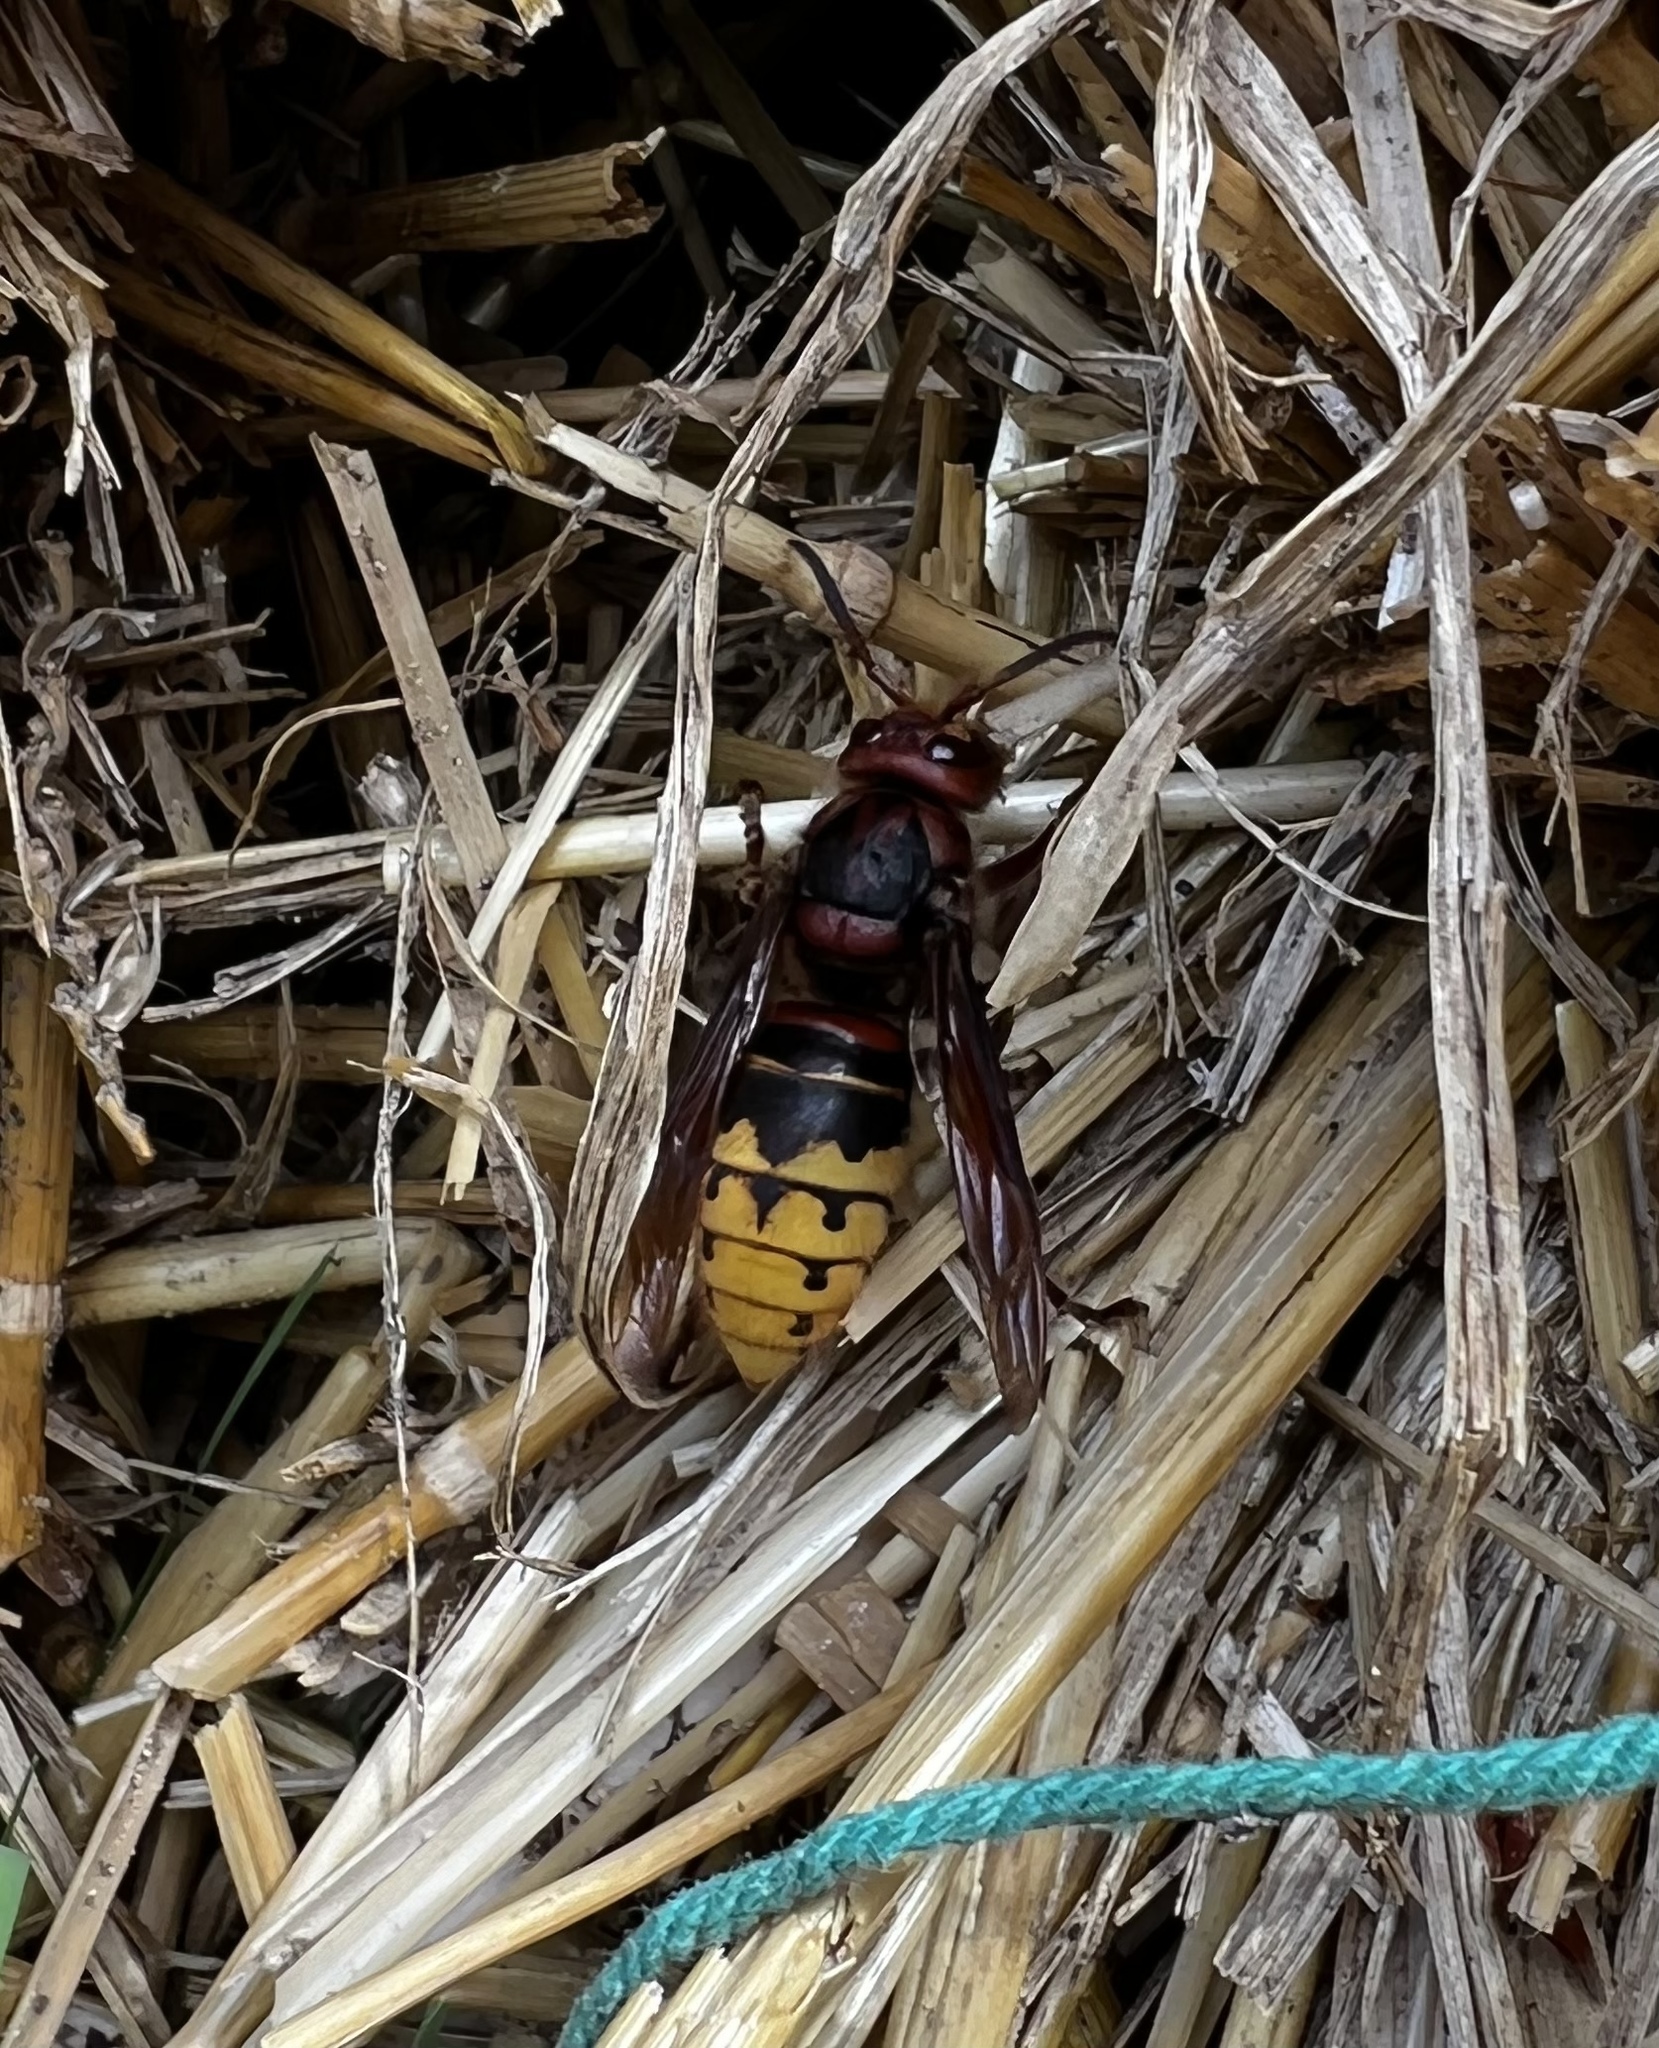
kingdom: Animalia
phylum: Arthropoda
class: Insecta
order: Hymenoptera
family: Vespidae
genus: Vespa
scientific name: Vespa crabro
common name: Hornet
